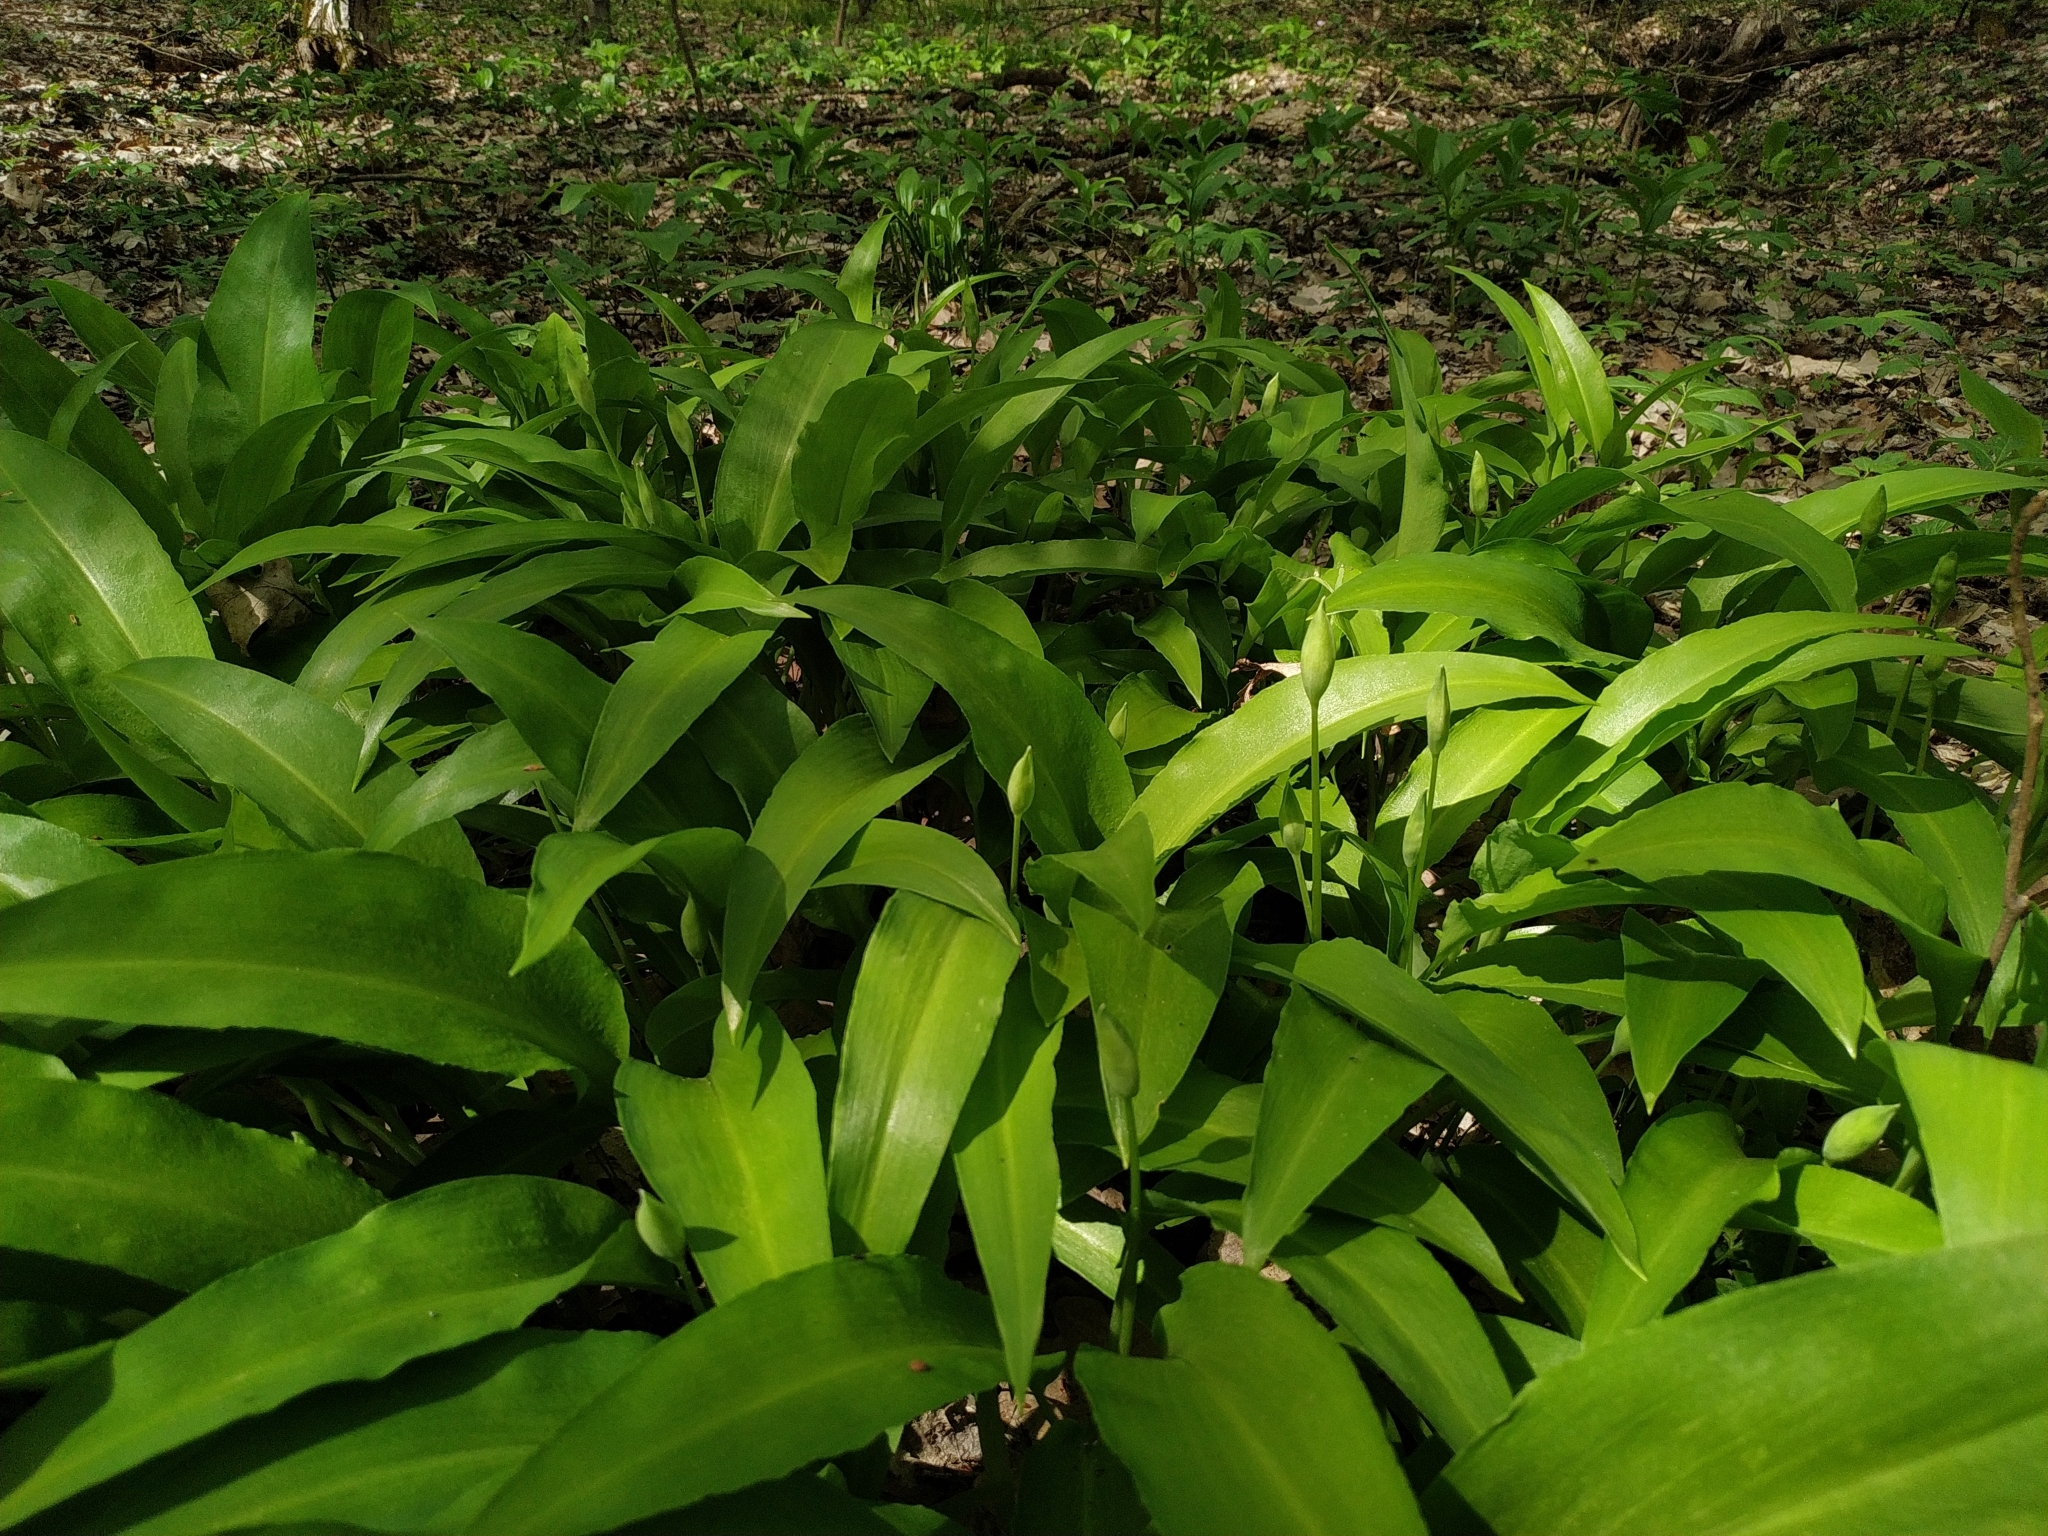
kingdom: Plantae
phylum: Tracheophyta
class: Liliopsida
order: Asparagales
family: Amaryllidaceae
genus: Allium
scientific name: Allium ursinum
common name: Ramsons
